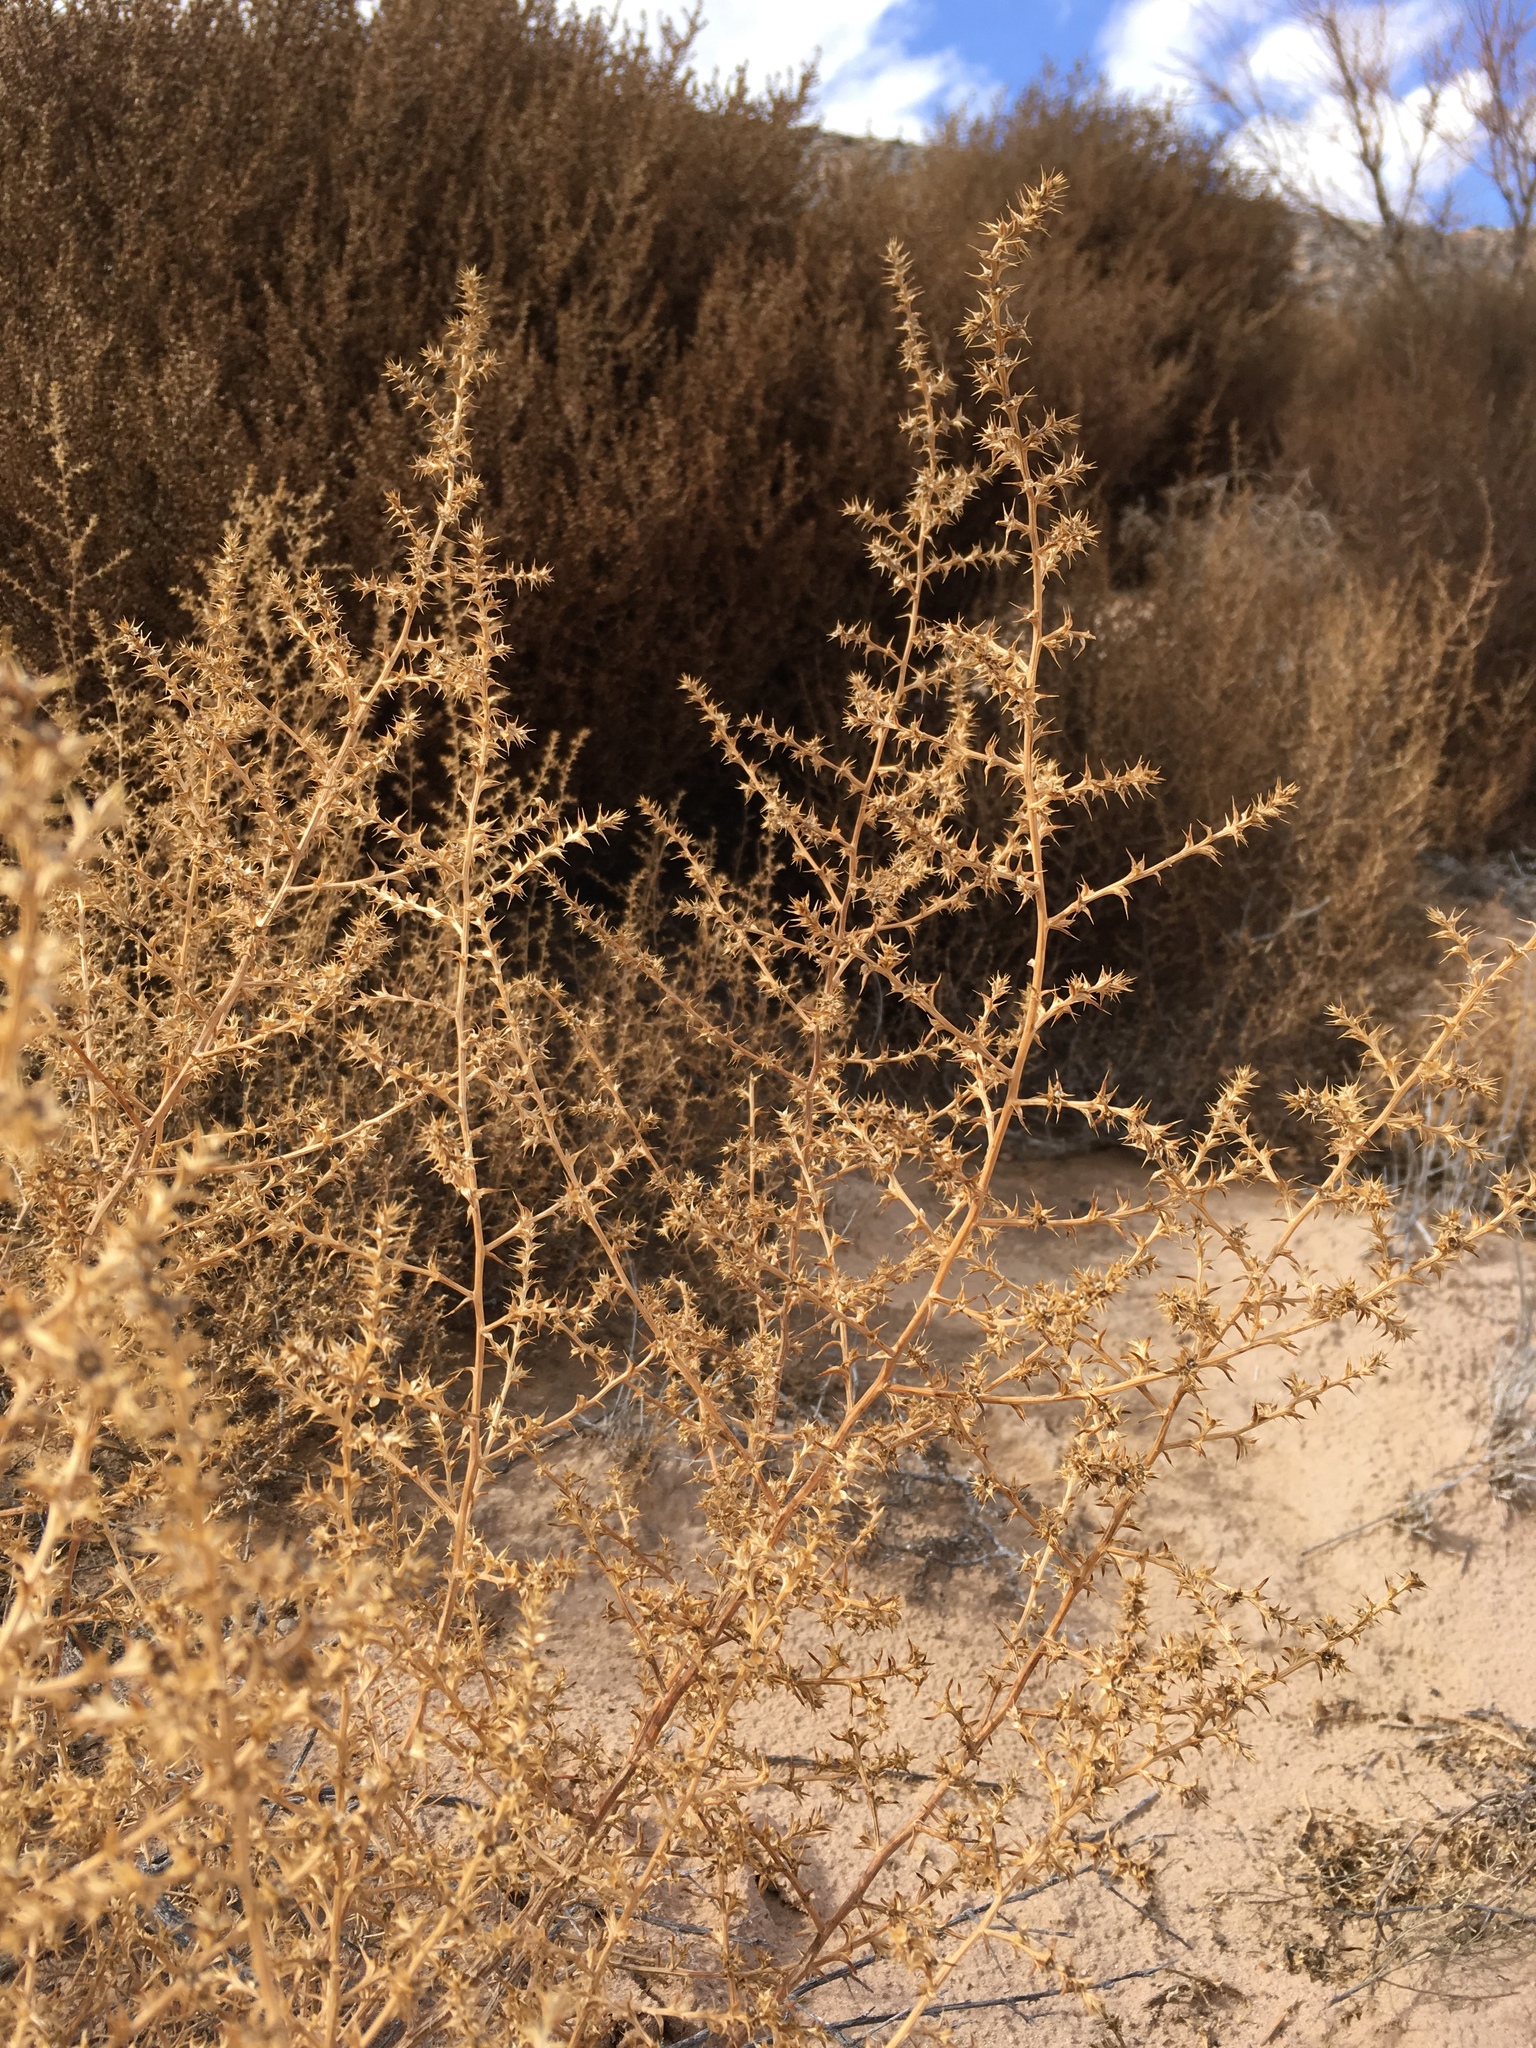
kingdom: Plantae
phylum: Tracheophyta
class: Magnoliopsida
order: Caryophyllales
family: Amaranthaceae
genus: Salsola
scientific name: Salsola tragus
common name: Prickly russian thistle
